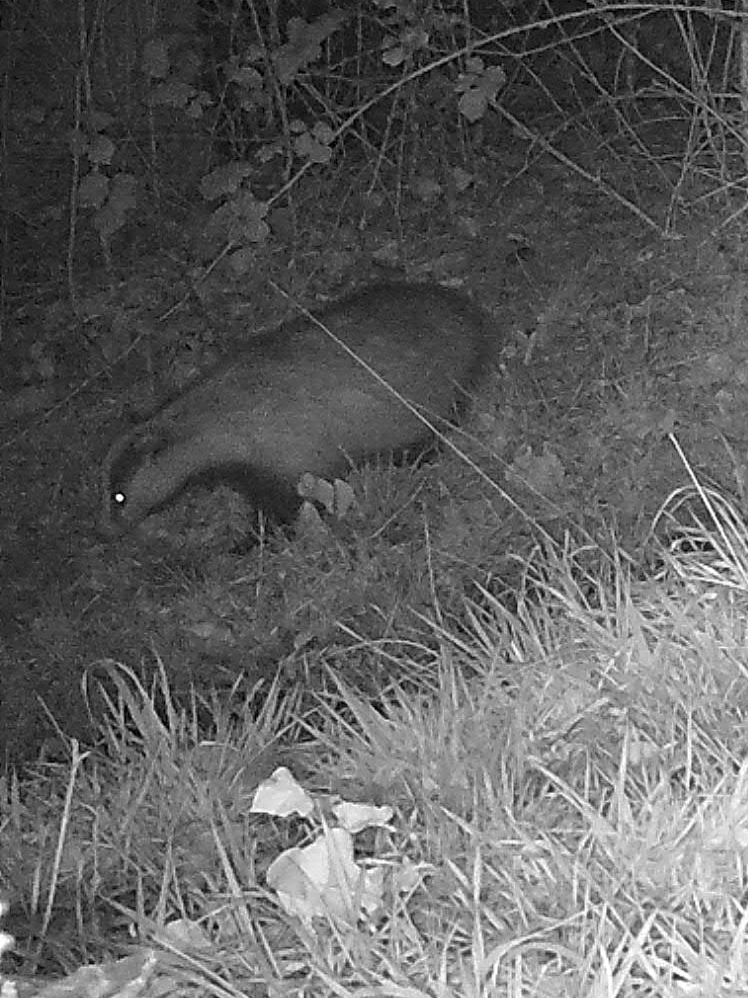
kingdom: Animalia
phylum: Chordata
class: Mammalia
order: Carnivora
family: Mustelidae
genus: Meles
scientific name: Meles meles
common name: Eurasian badger
